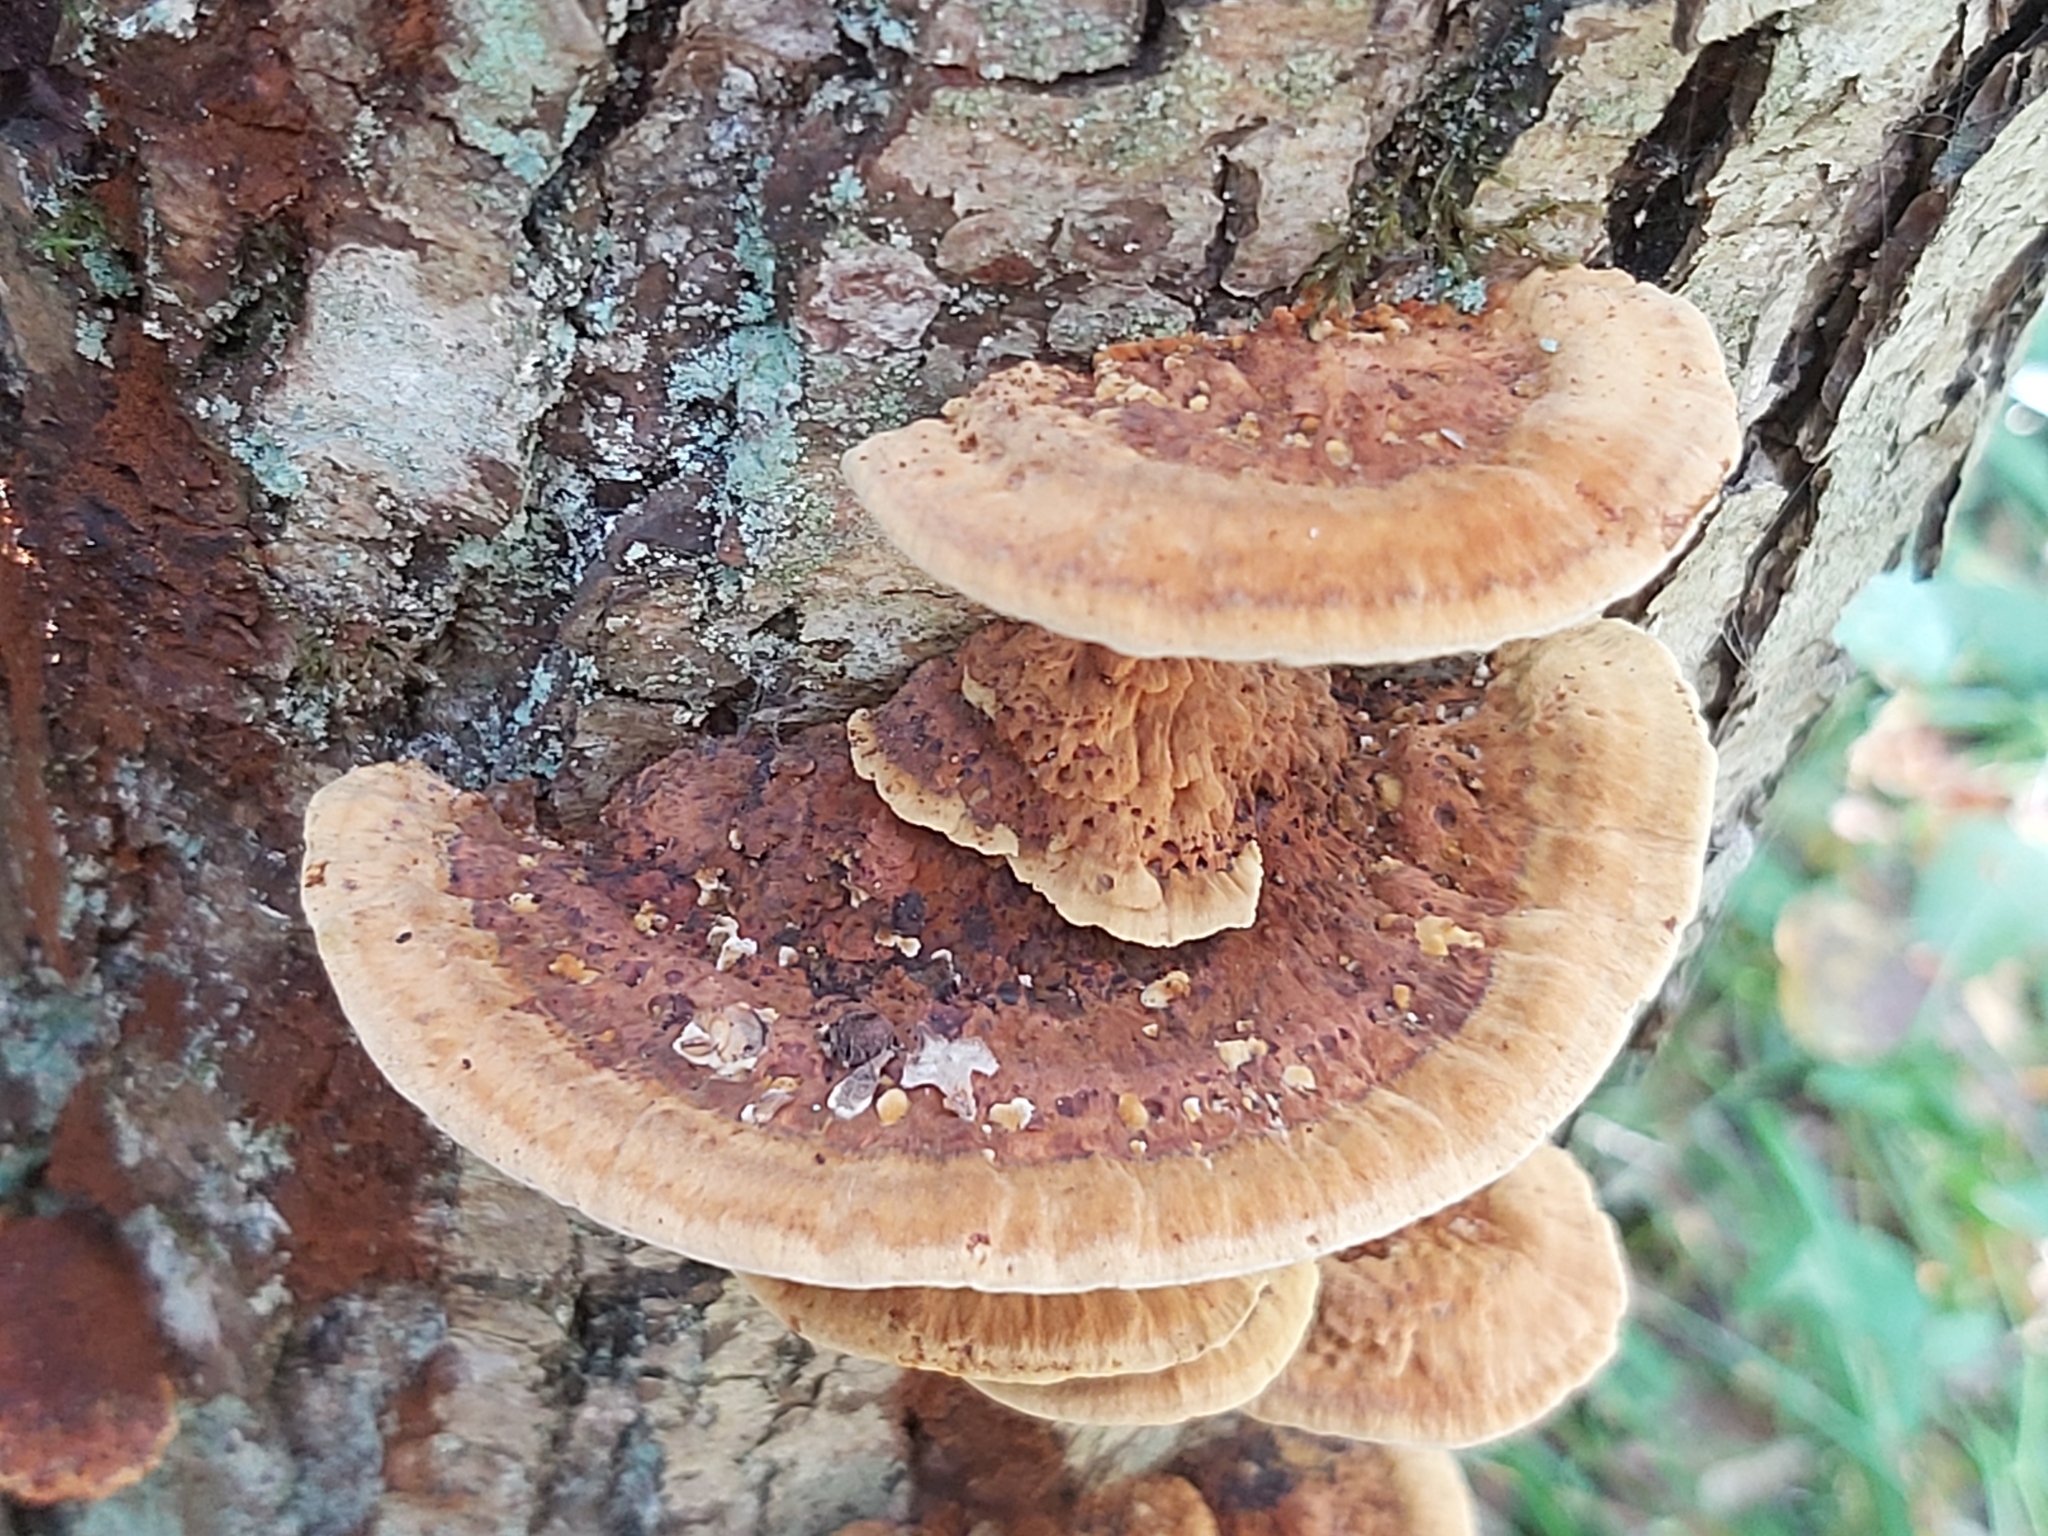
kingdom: Fungi
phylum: Basidiomycota
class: Agaricomycetes
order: Hymenochaetales
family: Hymenochaetaceae
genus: Xanthoporia
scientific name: Xanthoporia radiata
